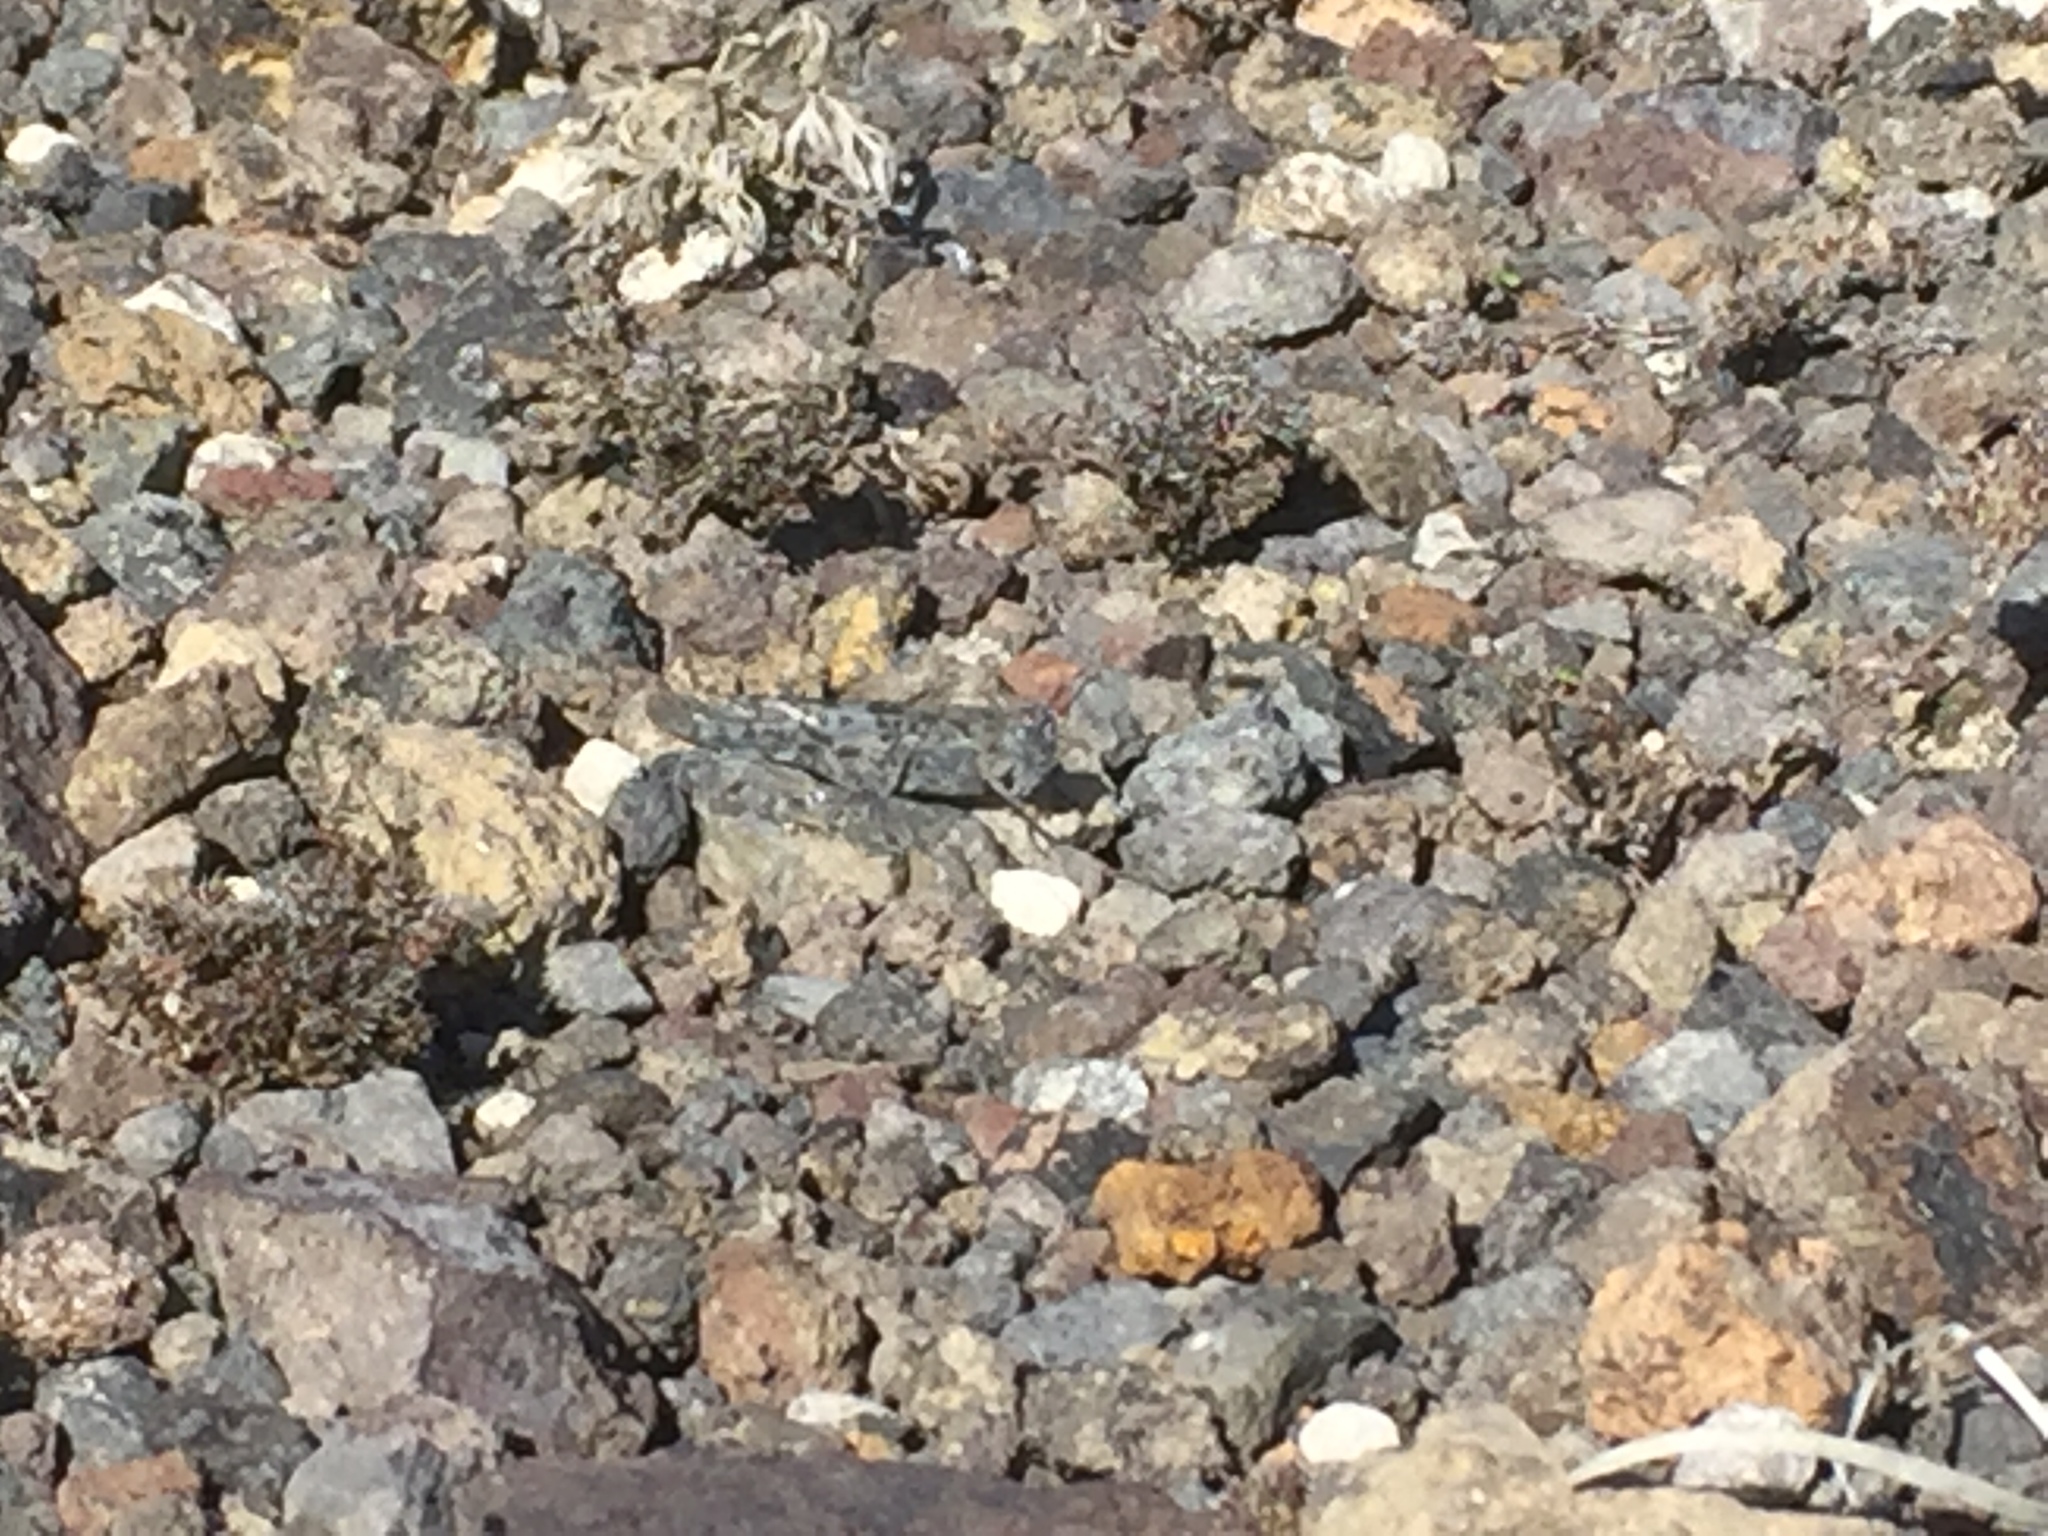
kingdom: Animalia
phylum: Arthropoda
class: Insecta
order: Orthoptera
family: Acrididae
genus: Sphingonotus
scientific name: Sphingonotus rubescens
